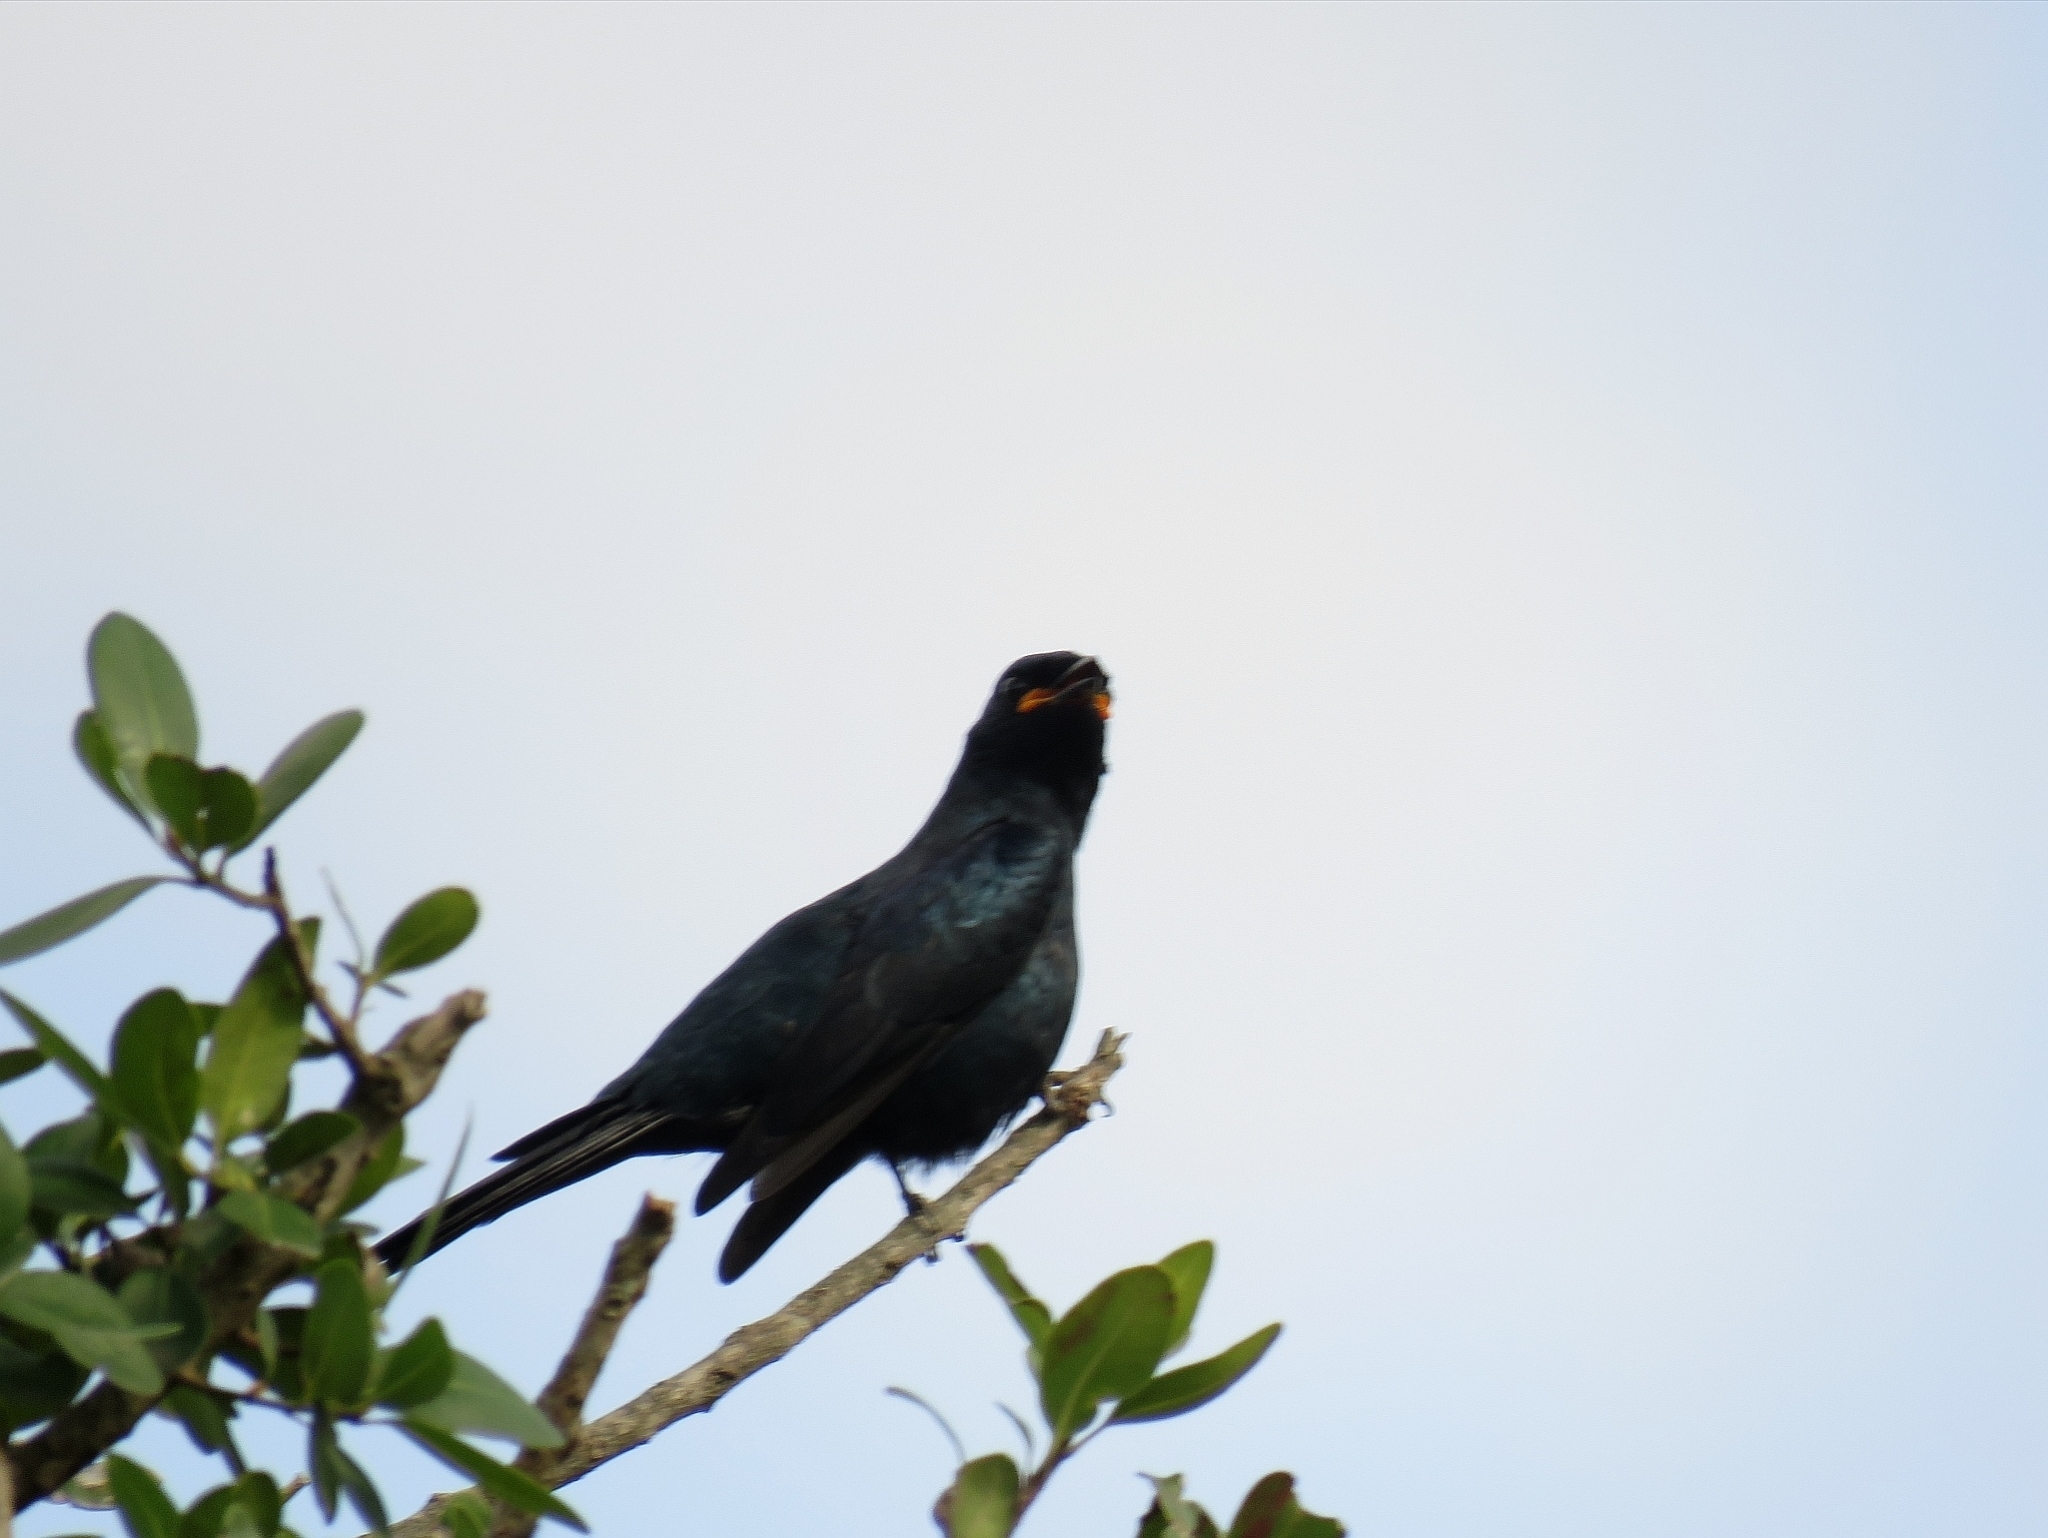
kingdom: Animalia
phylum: Chordata
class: Aves
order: Passeriformes
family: Campephagidae
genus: Campephaga
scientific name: Campephaga flava
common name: Black cuckooshrike
